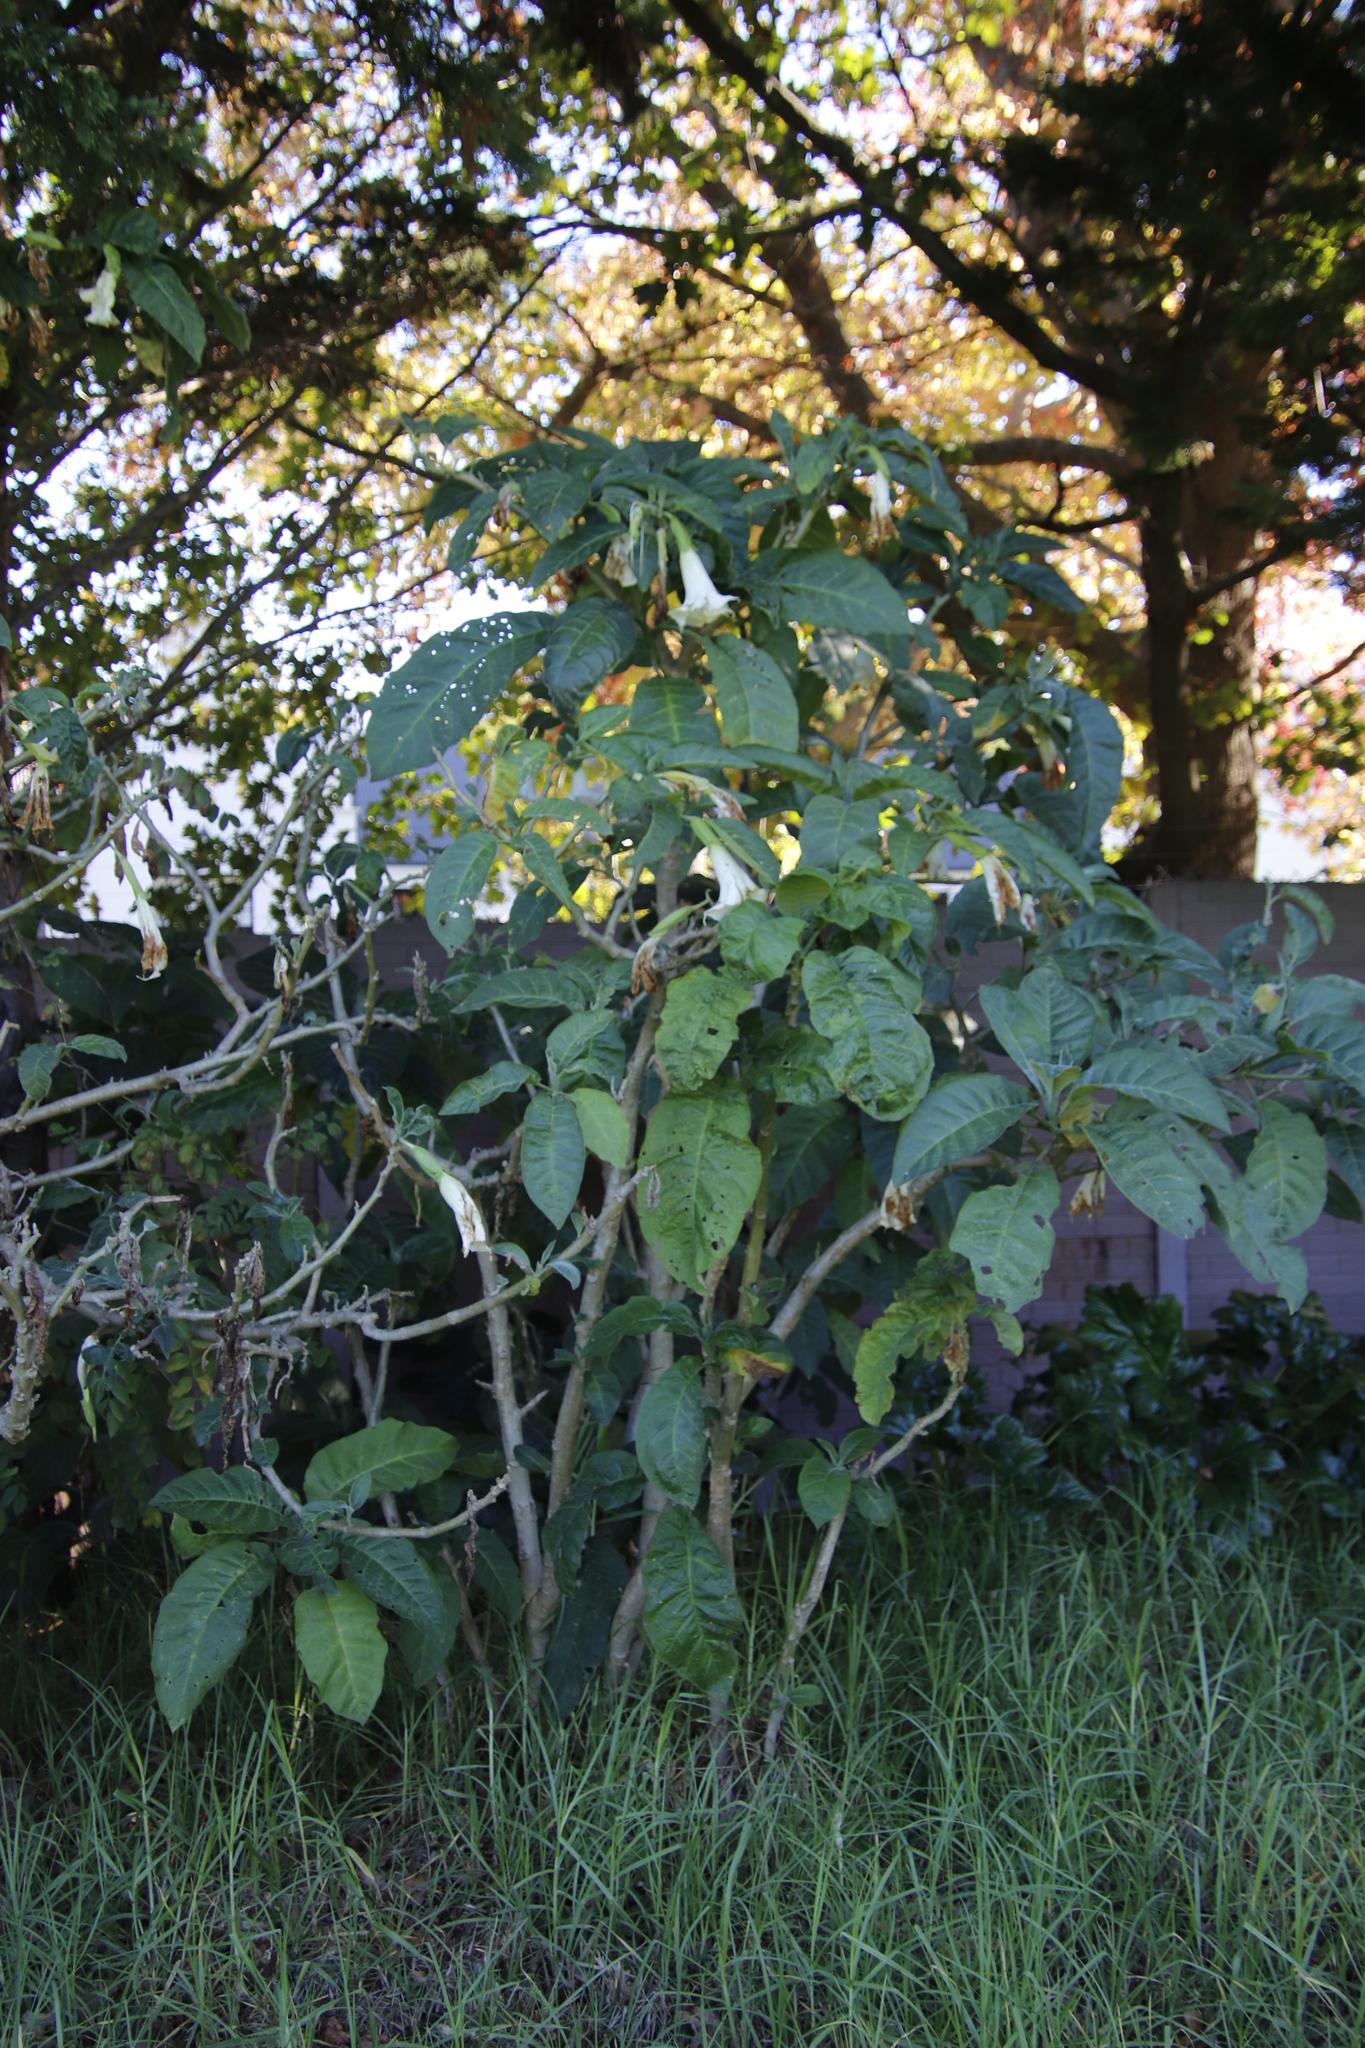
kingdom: Plantae
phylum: Tracheophyta
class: Magnoliopsida
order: Solanales
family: Solanaceae
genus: Brugmansia
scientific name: Brugmansia suaveolens
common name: Angel's tears
